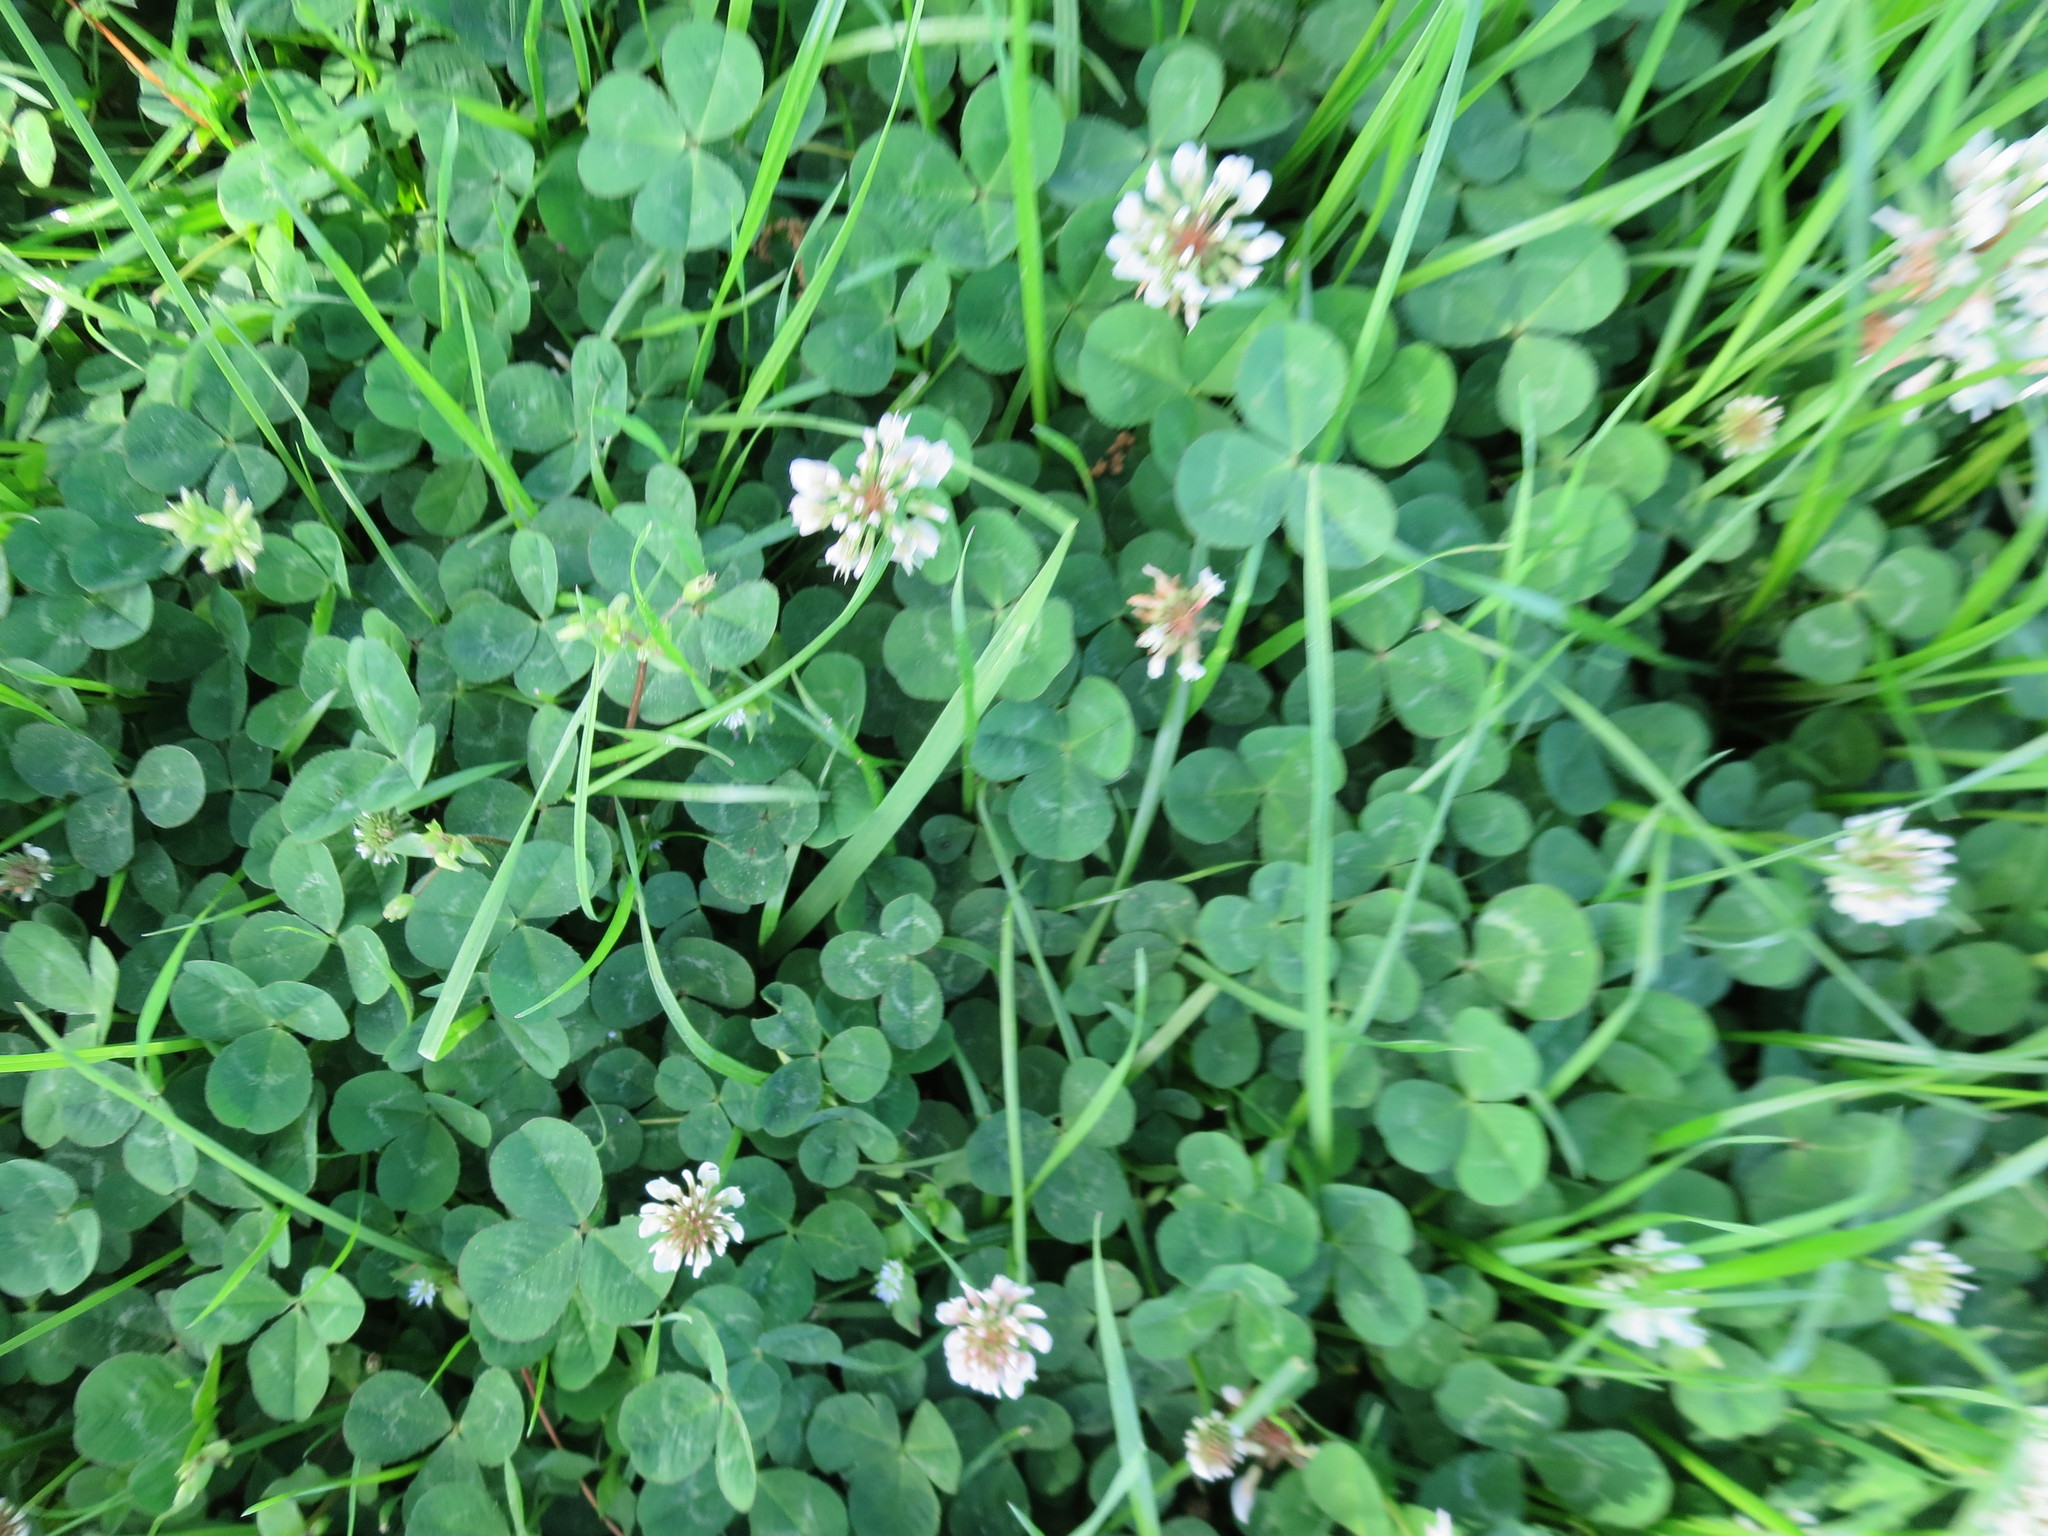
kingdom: Plantae
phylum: Tracheophyta
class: Magnoliopsida
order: Fabales
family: Fabaceae
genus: Trifolium
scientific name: Trifolium repens
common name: White clover
